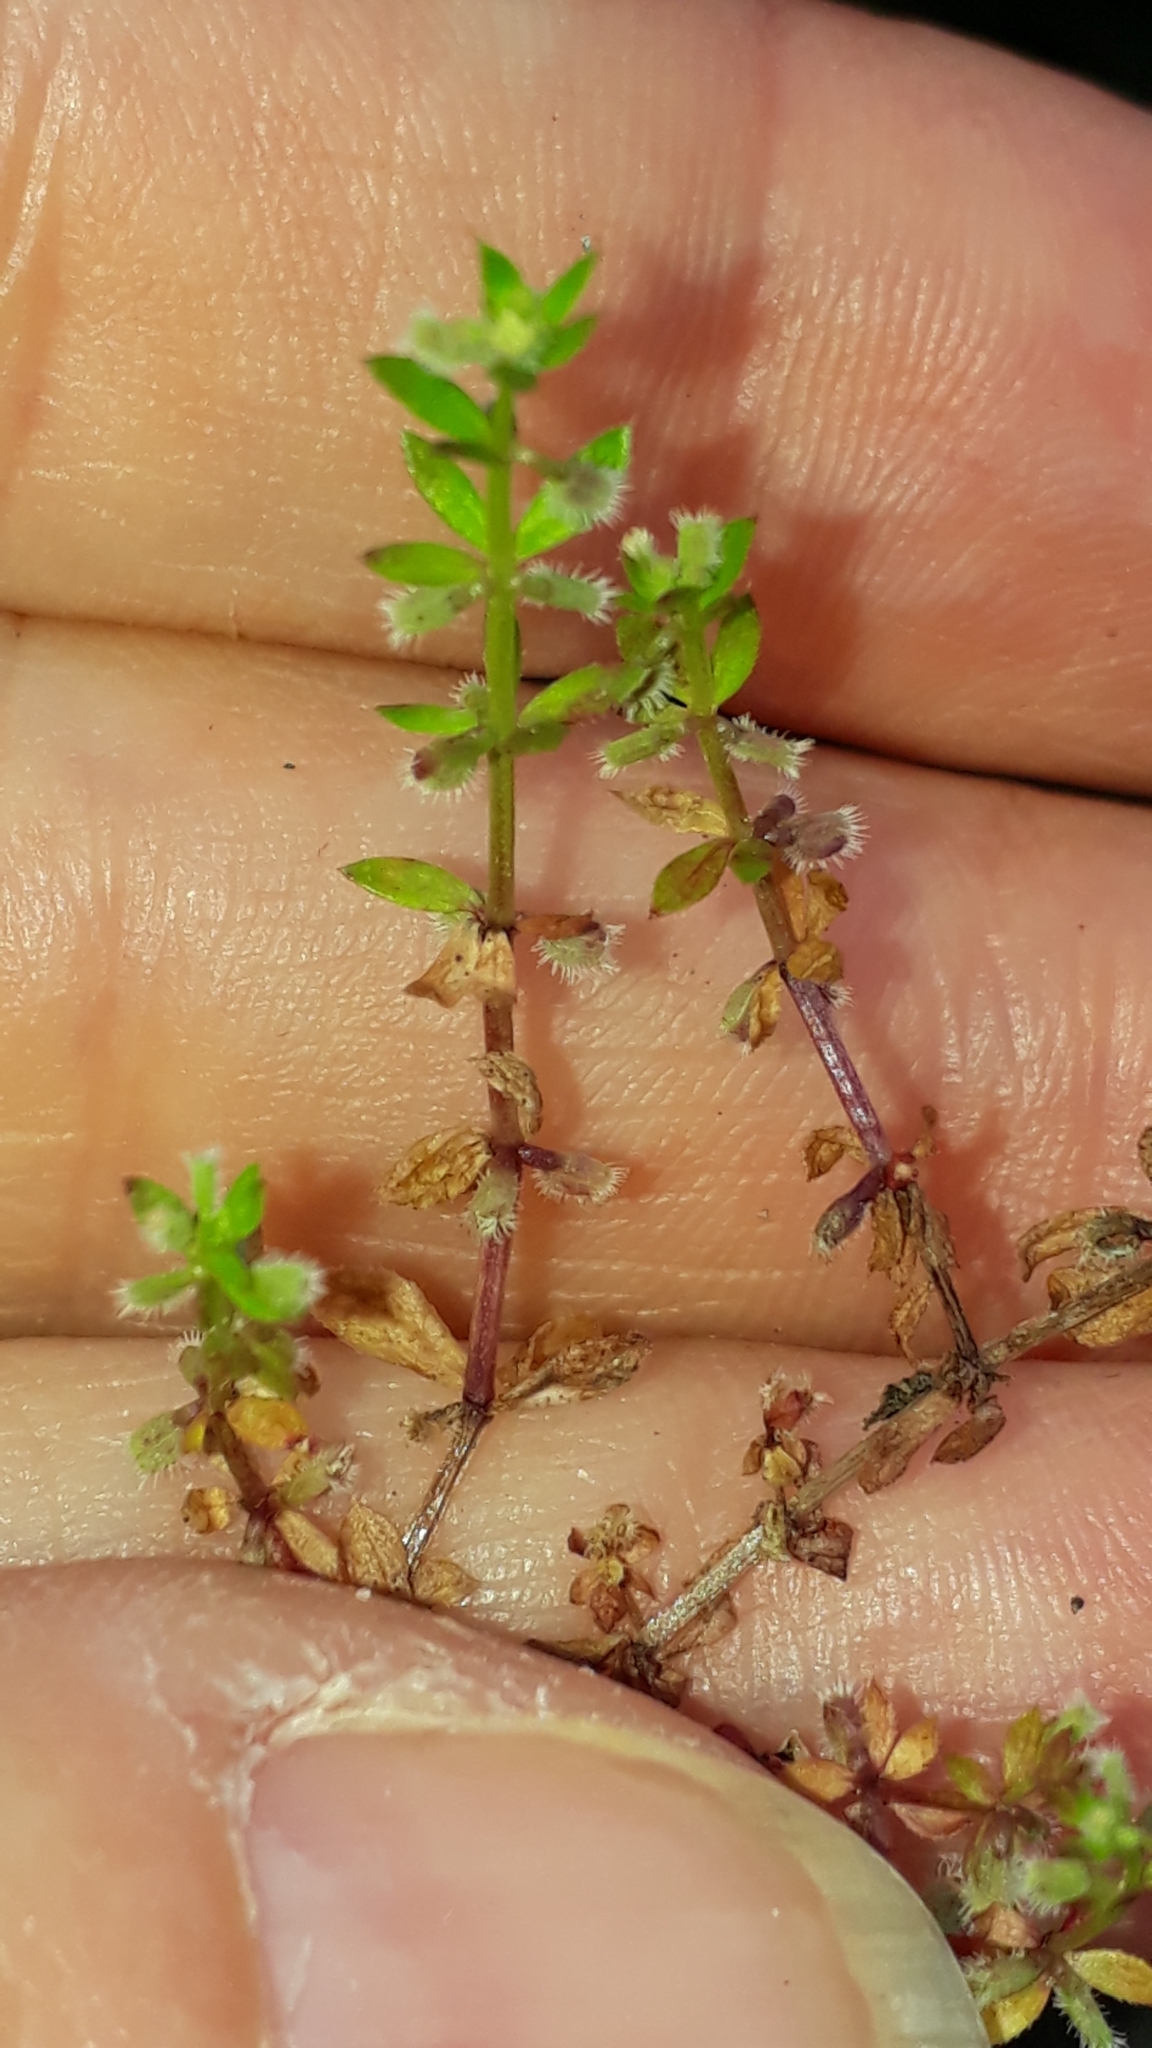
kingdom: Plantae
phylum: Tracheophyta
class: Magnoliopsida
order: Gentianales
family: Rubiaceae
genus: Galium
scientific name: Galium murale
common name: Yellow wall bedstraw
